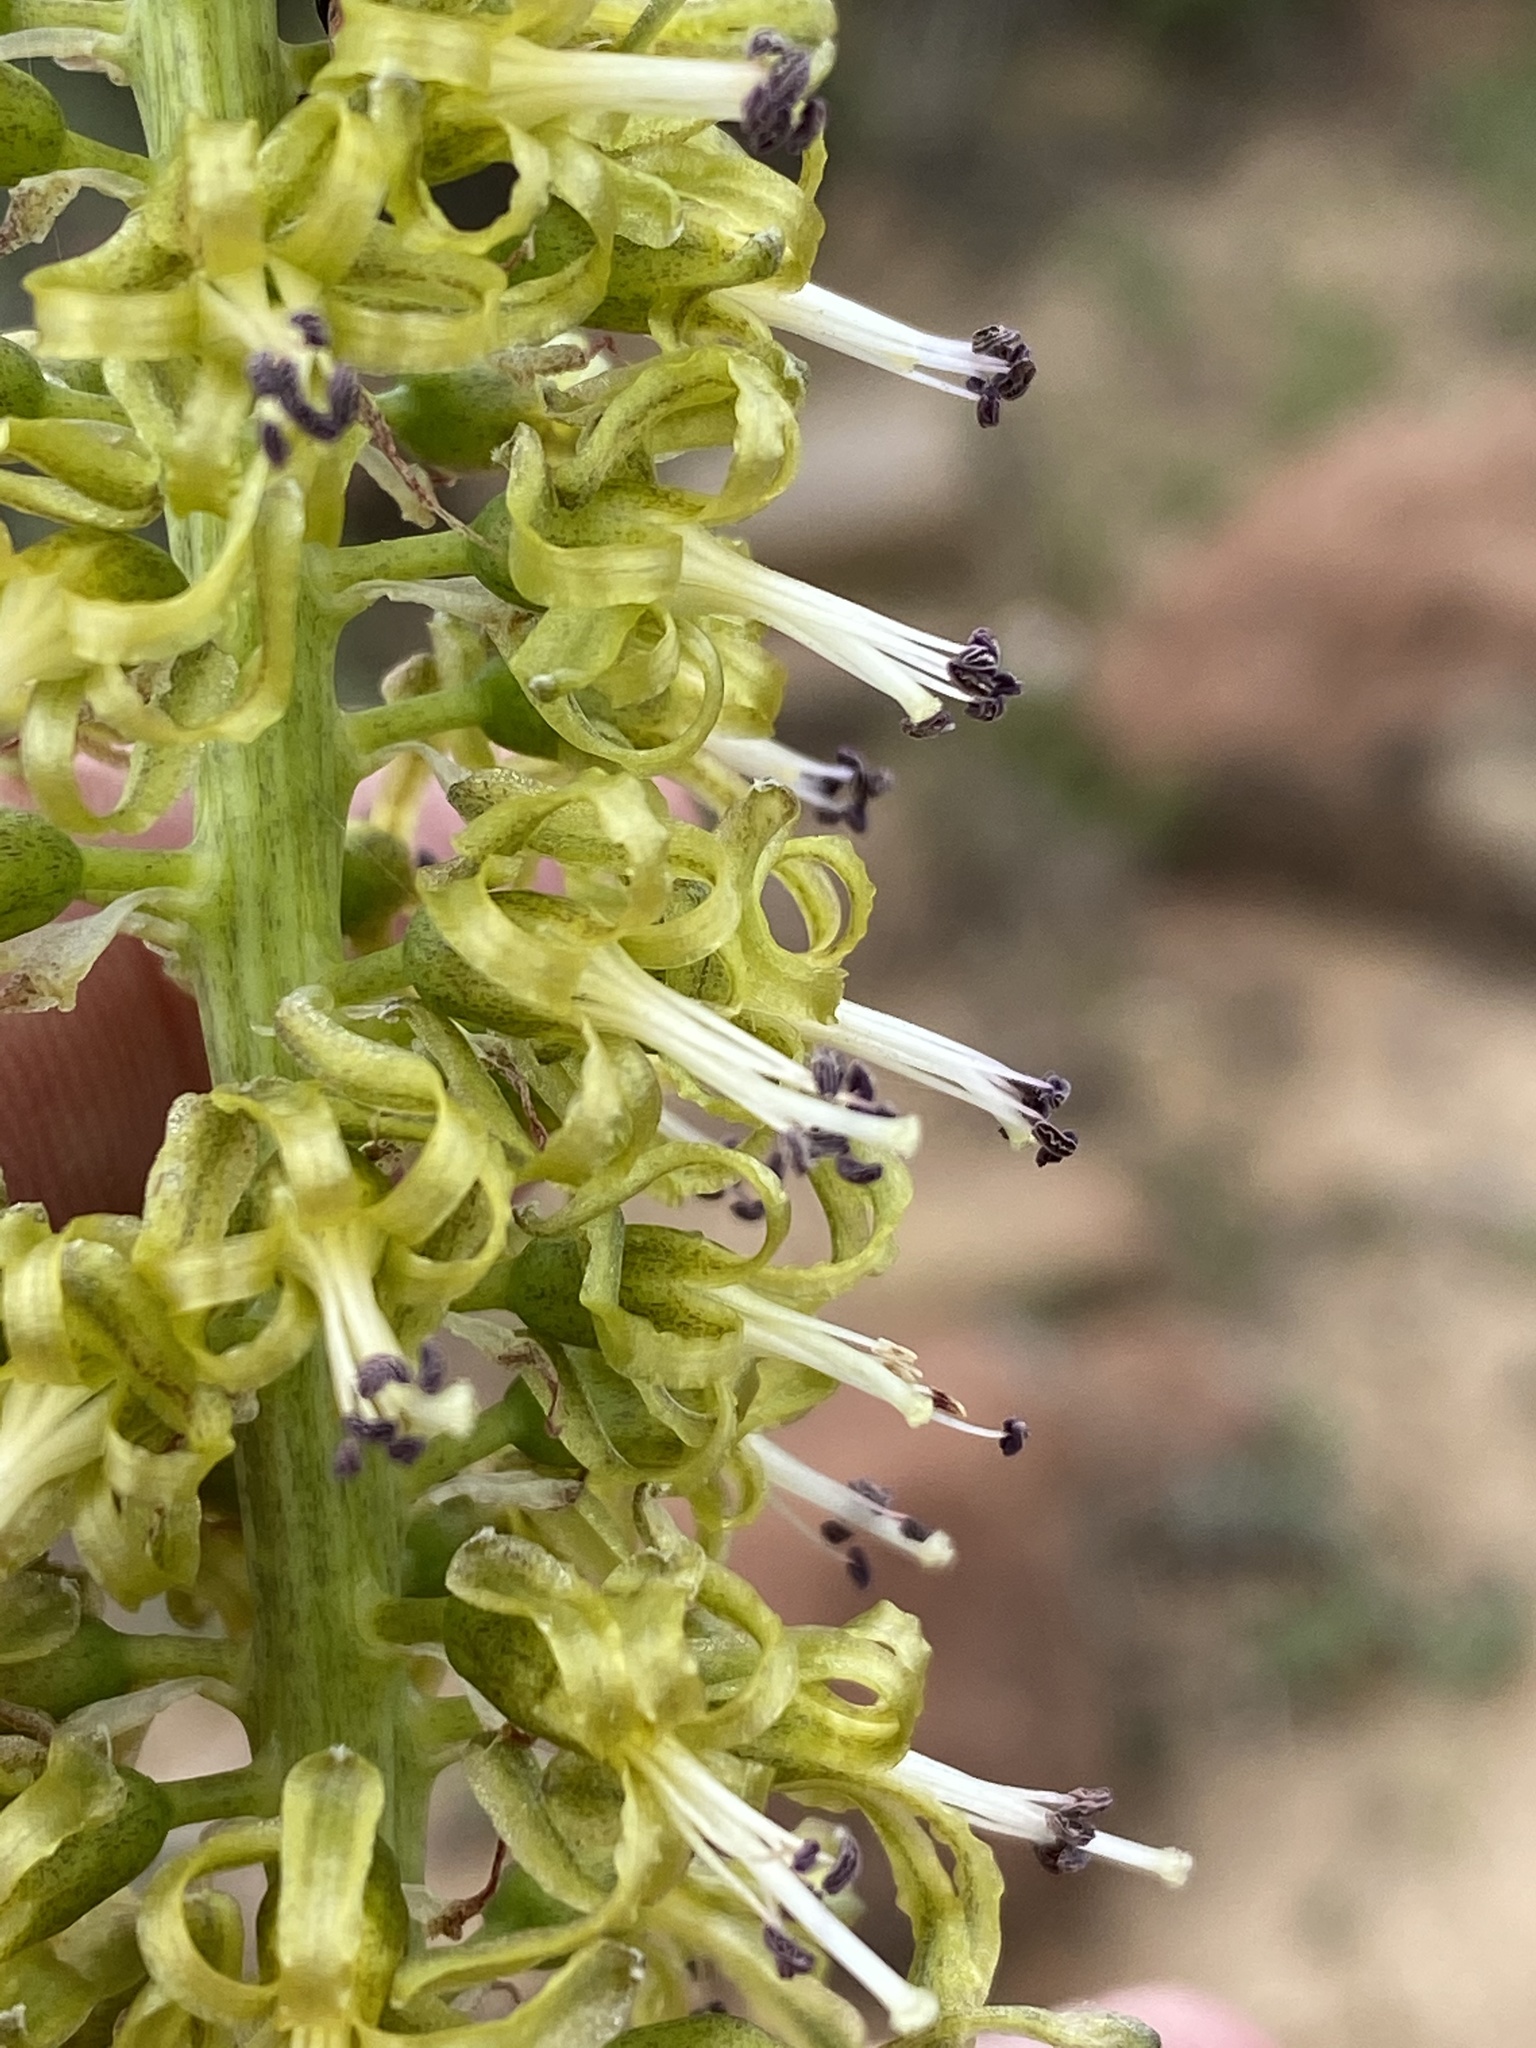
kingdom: Plantae
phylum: Tracheophyta
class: Liliopsida
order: Asparagales
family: Asparagaceae
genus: Drimia
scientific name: Drimia elata
